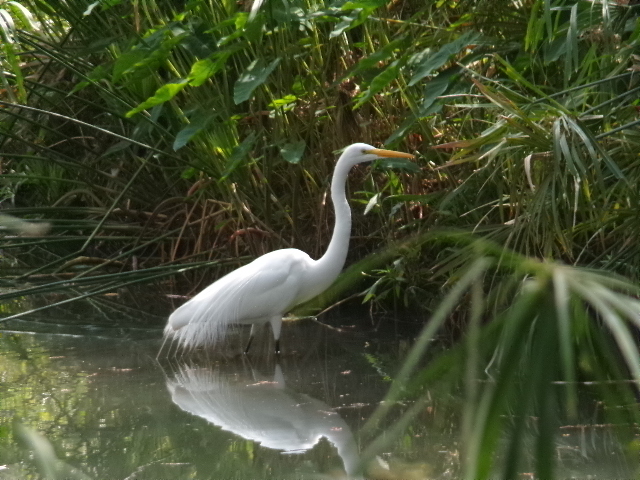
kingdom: Animalia
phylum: Chordata
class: Aves
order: Pelecaniformes
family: Ardeidae
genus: Ardea
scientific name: Ardea alba
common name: Great egret
